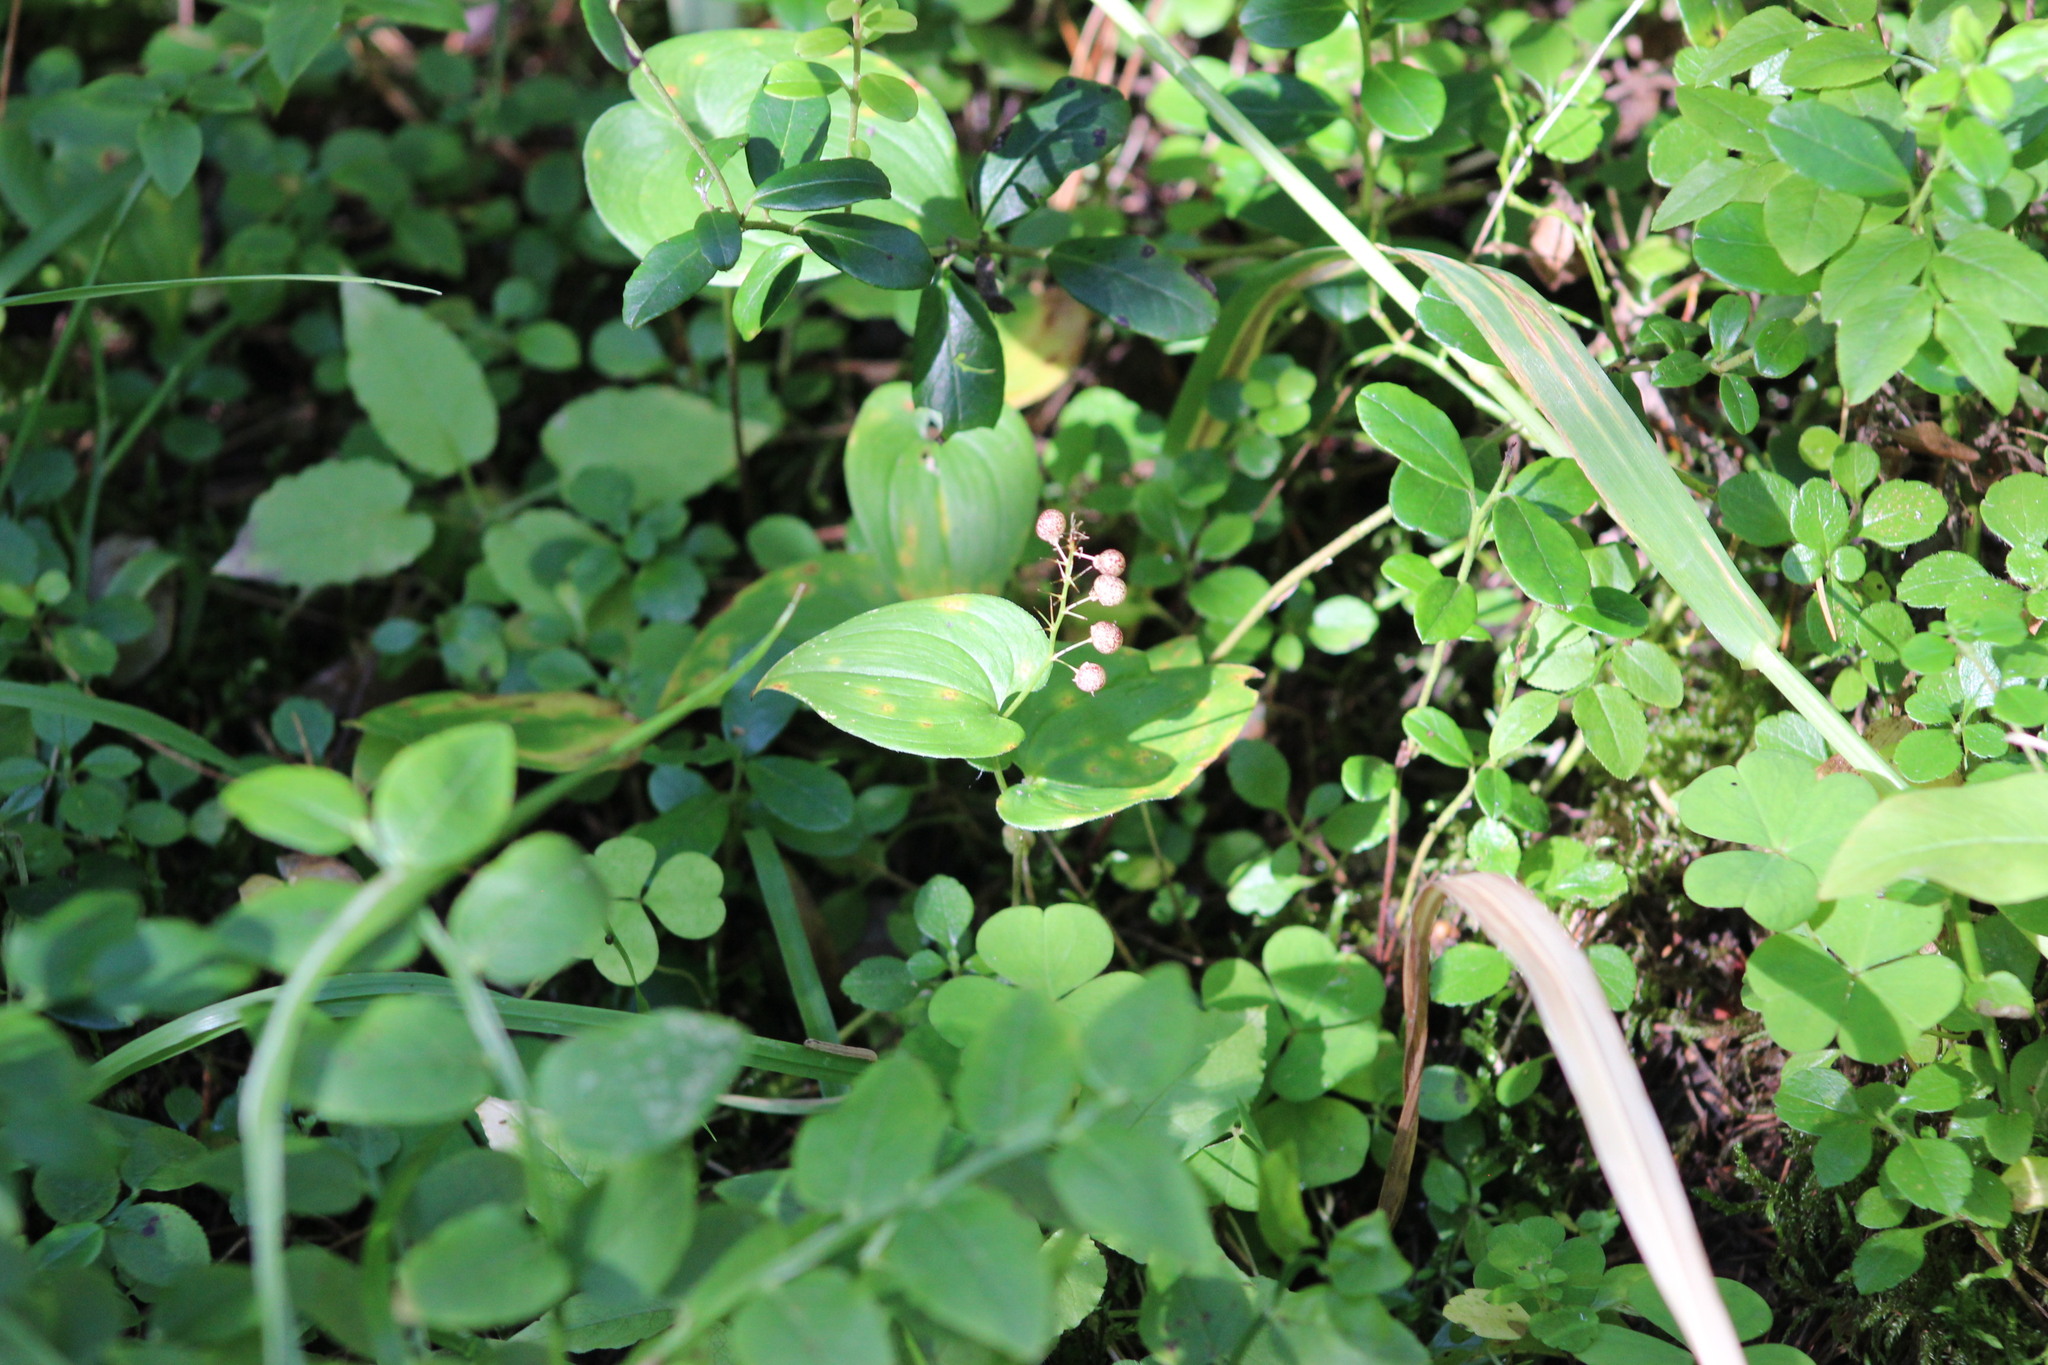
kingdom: Plantae
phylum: Tracheophyta
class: Liliopsida
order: Asparagales
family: Asparagaceae
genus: Maianthemum
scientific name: Maianthemum bifolium
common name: May lily
